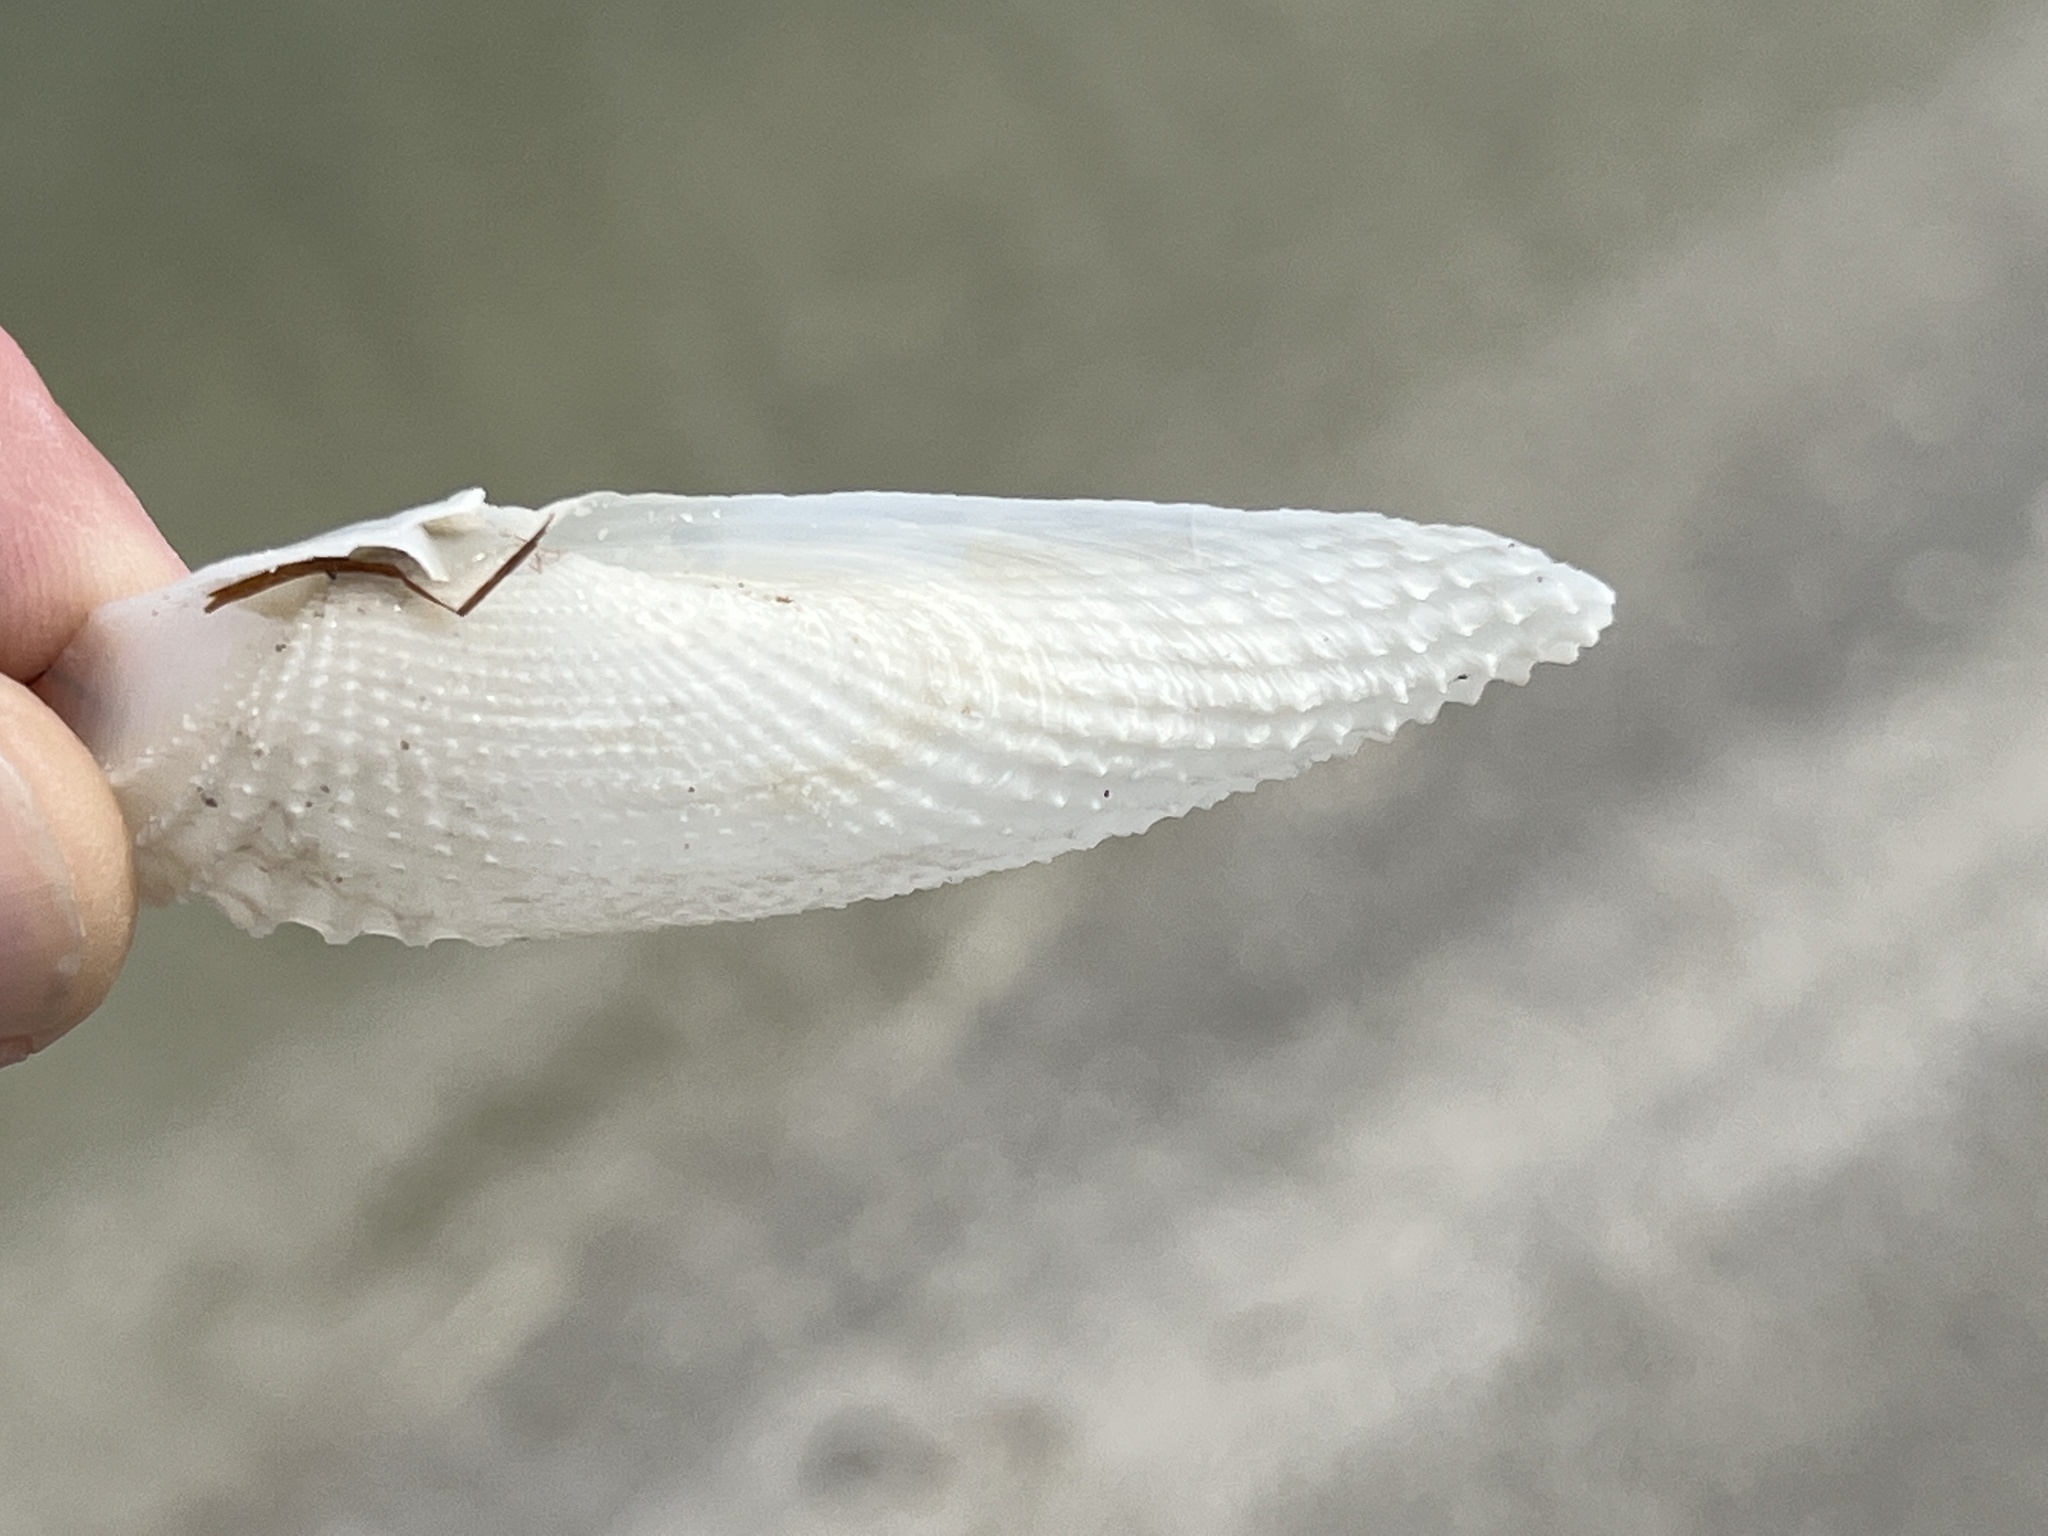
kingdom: Animalia
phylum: Mollusca
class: Bivalvia
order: Myida
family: Pholadidae
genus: Cyrtopleura
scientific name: Cyrtopleura costata
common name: Angel wing
